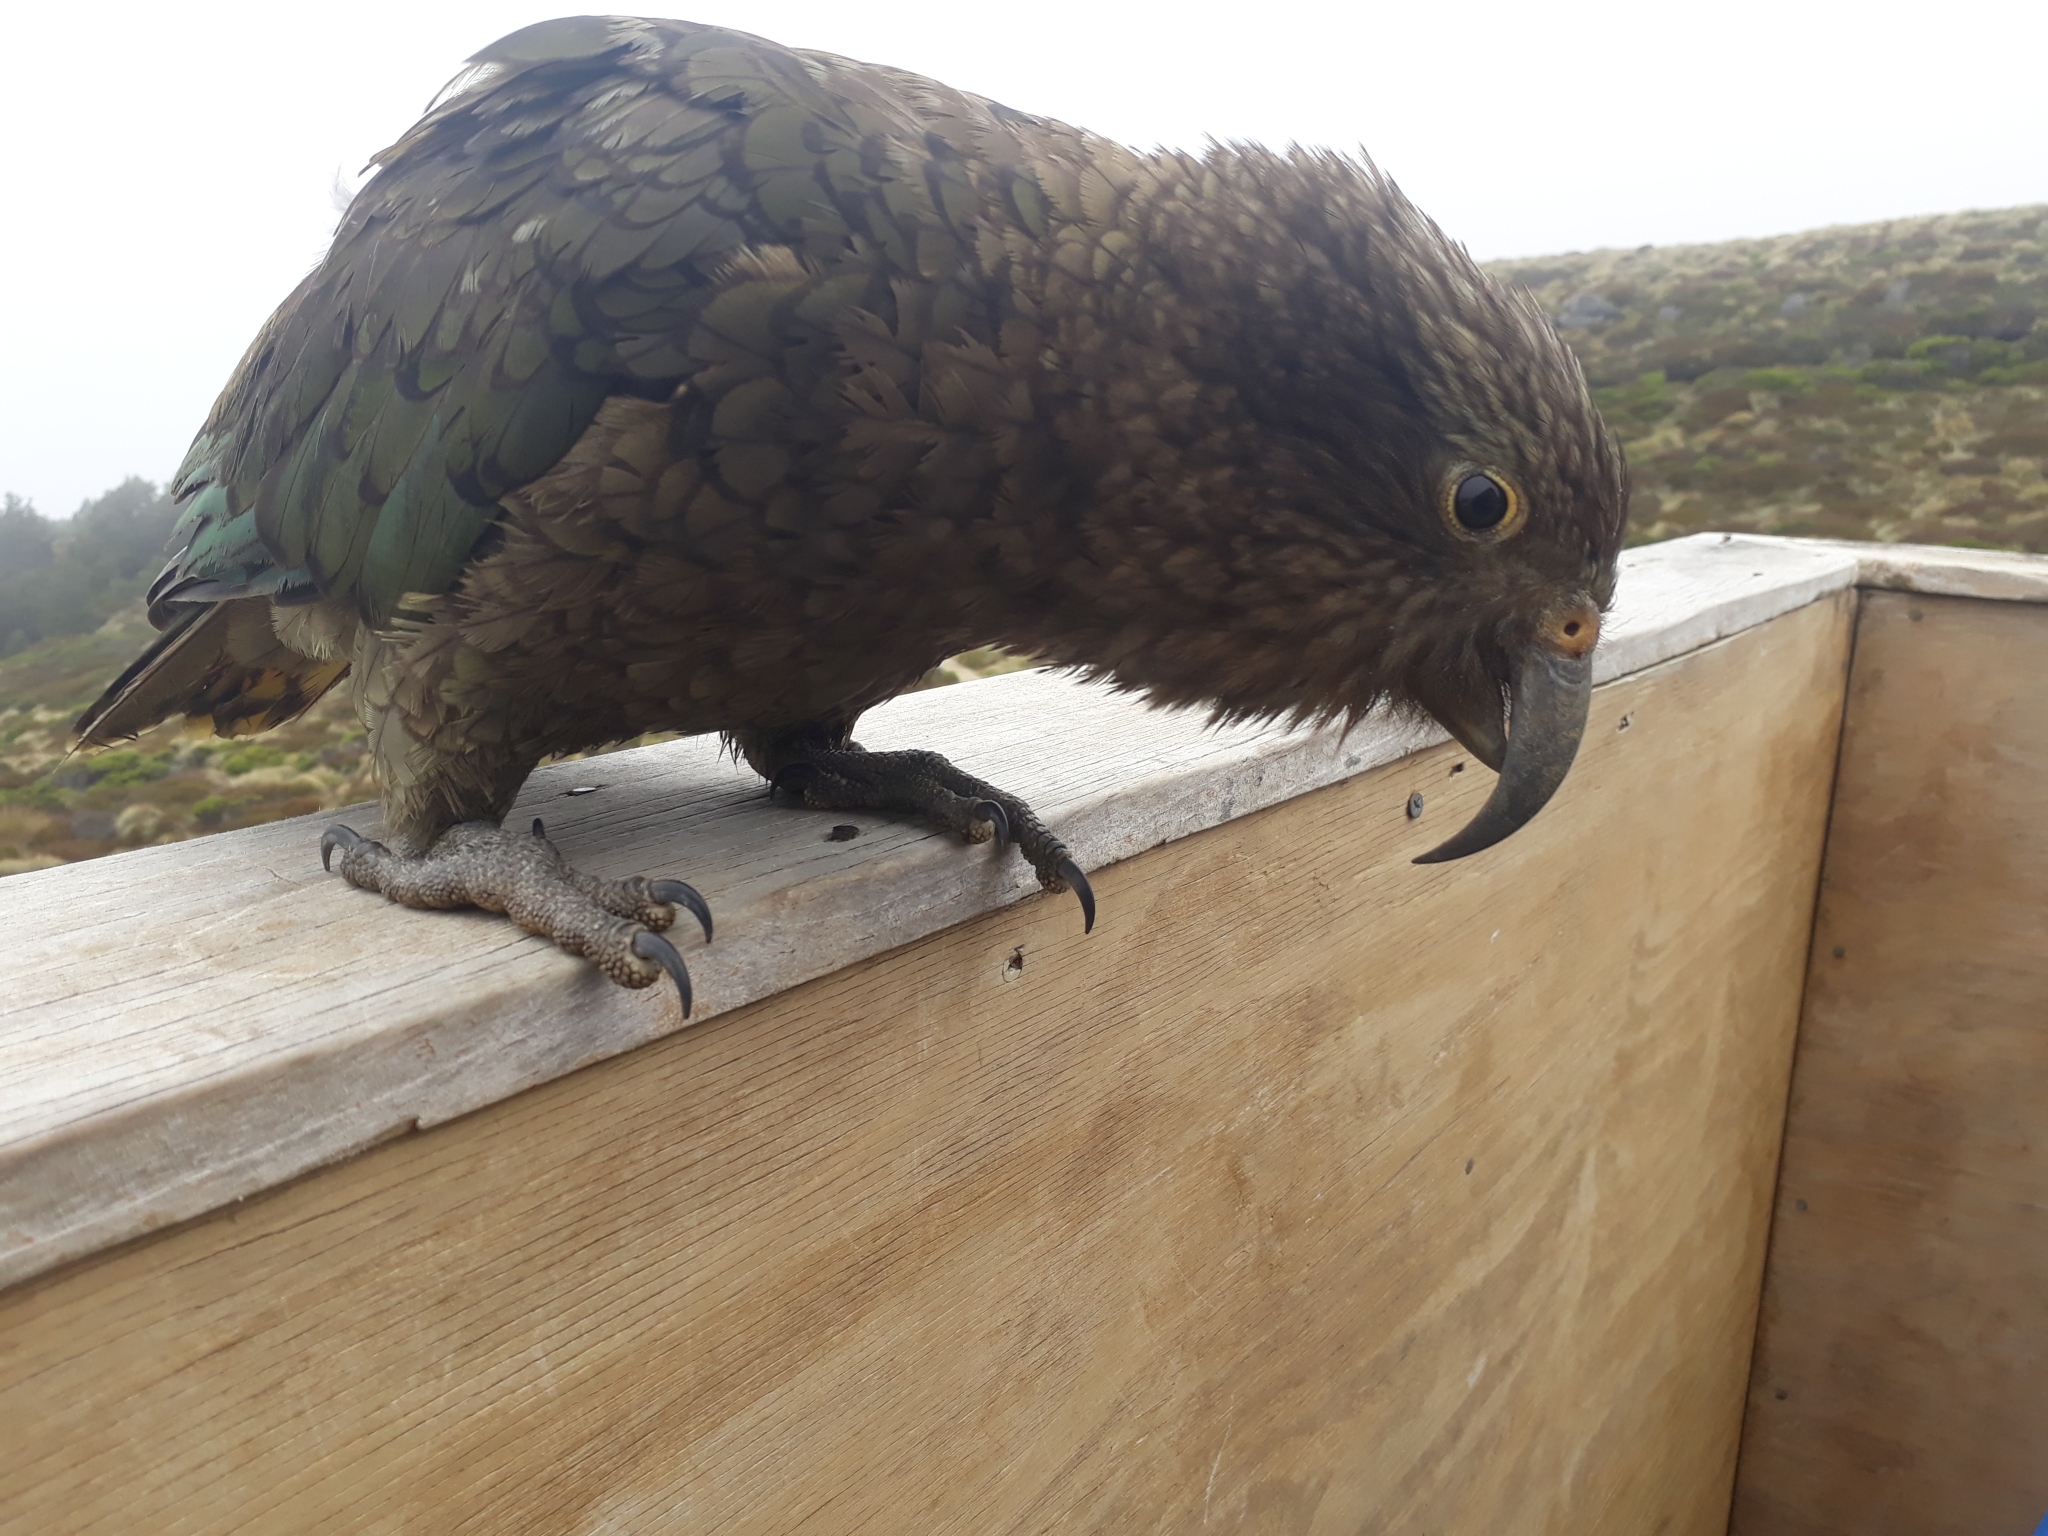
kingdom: Animalia
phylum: Chordata
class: Aves
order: Psittaciformes
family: Psittacidae
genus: Nestor
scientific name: Nestor notabilis
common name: Kea
